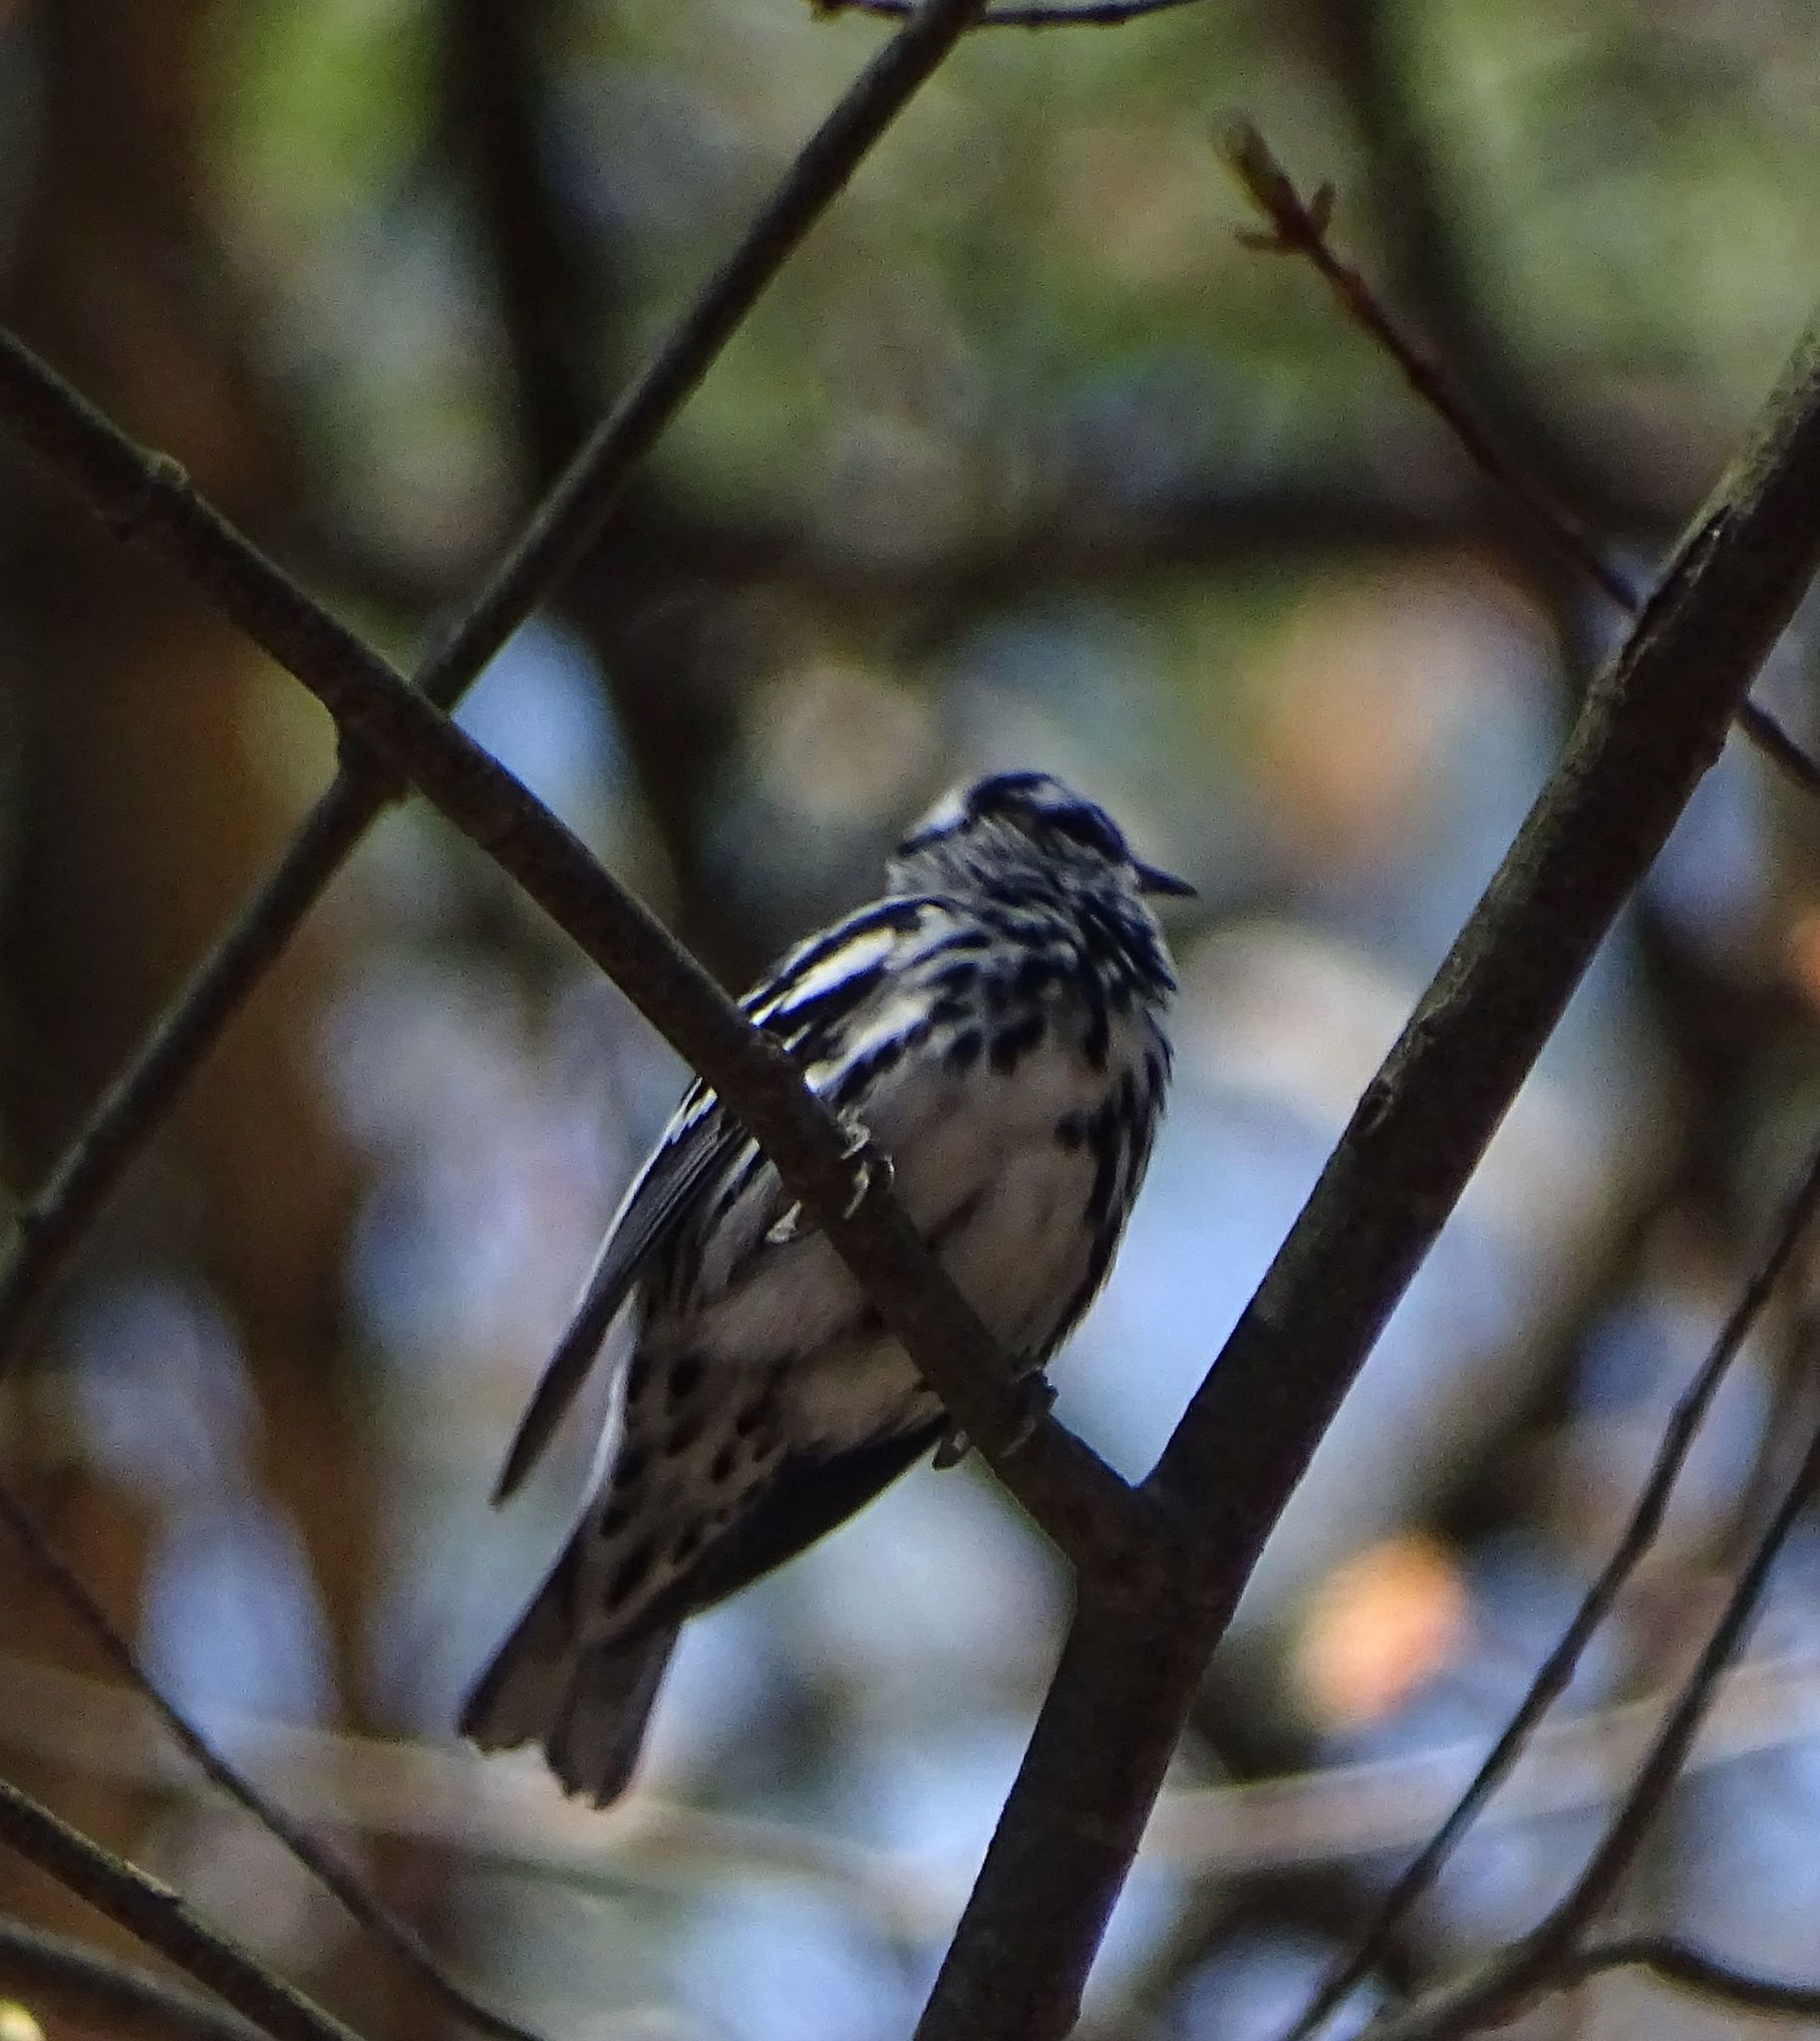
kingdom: Animalia
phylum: Chordata
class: Aves
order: Passeriformes
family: Parulidae
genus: Mniotilta
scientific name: Mniotilta varia
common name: Black-and-white warbler
